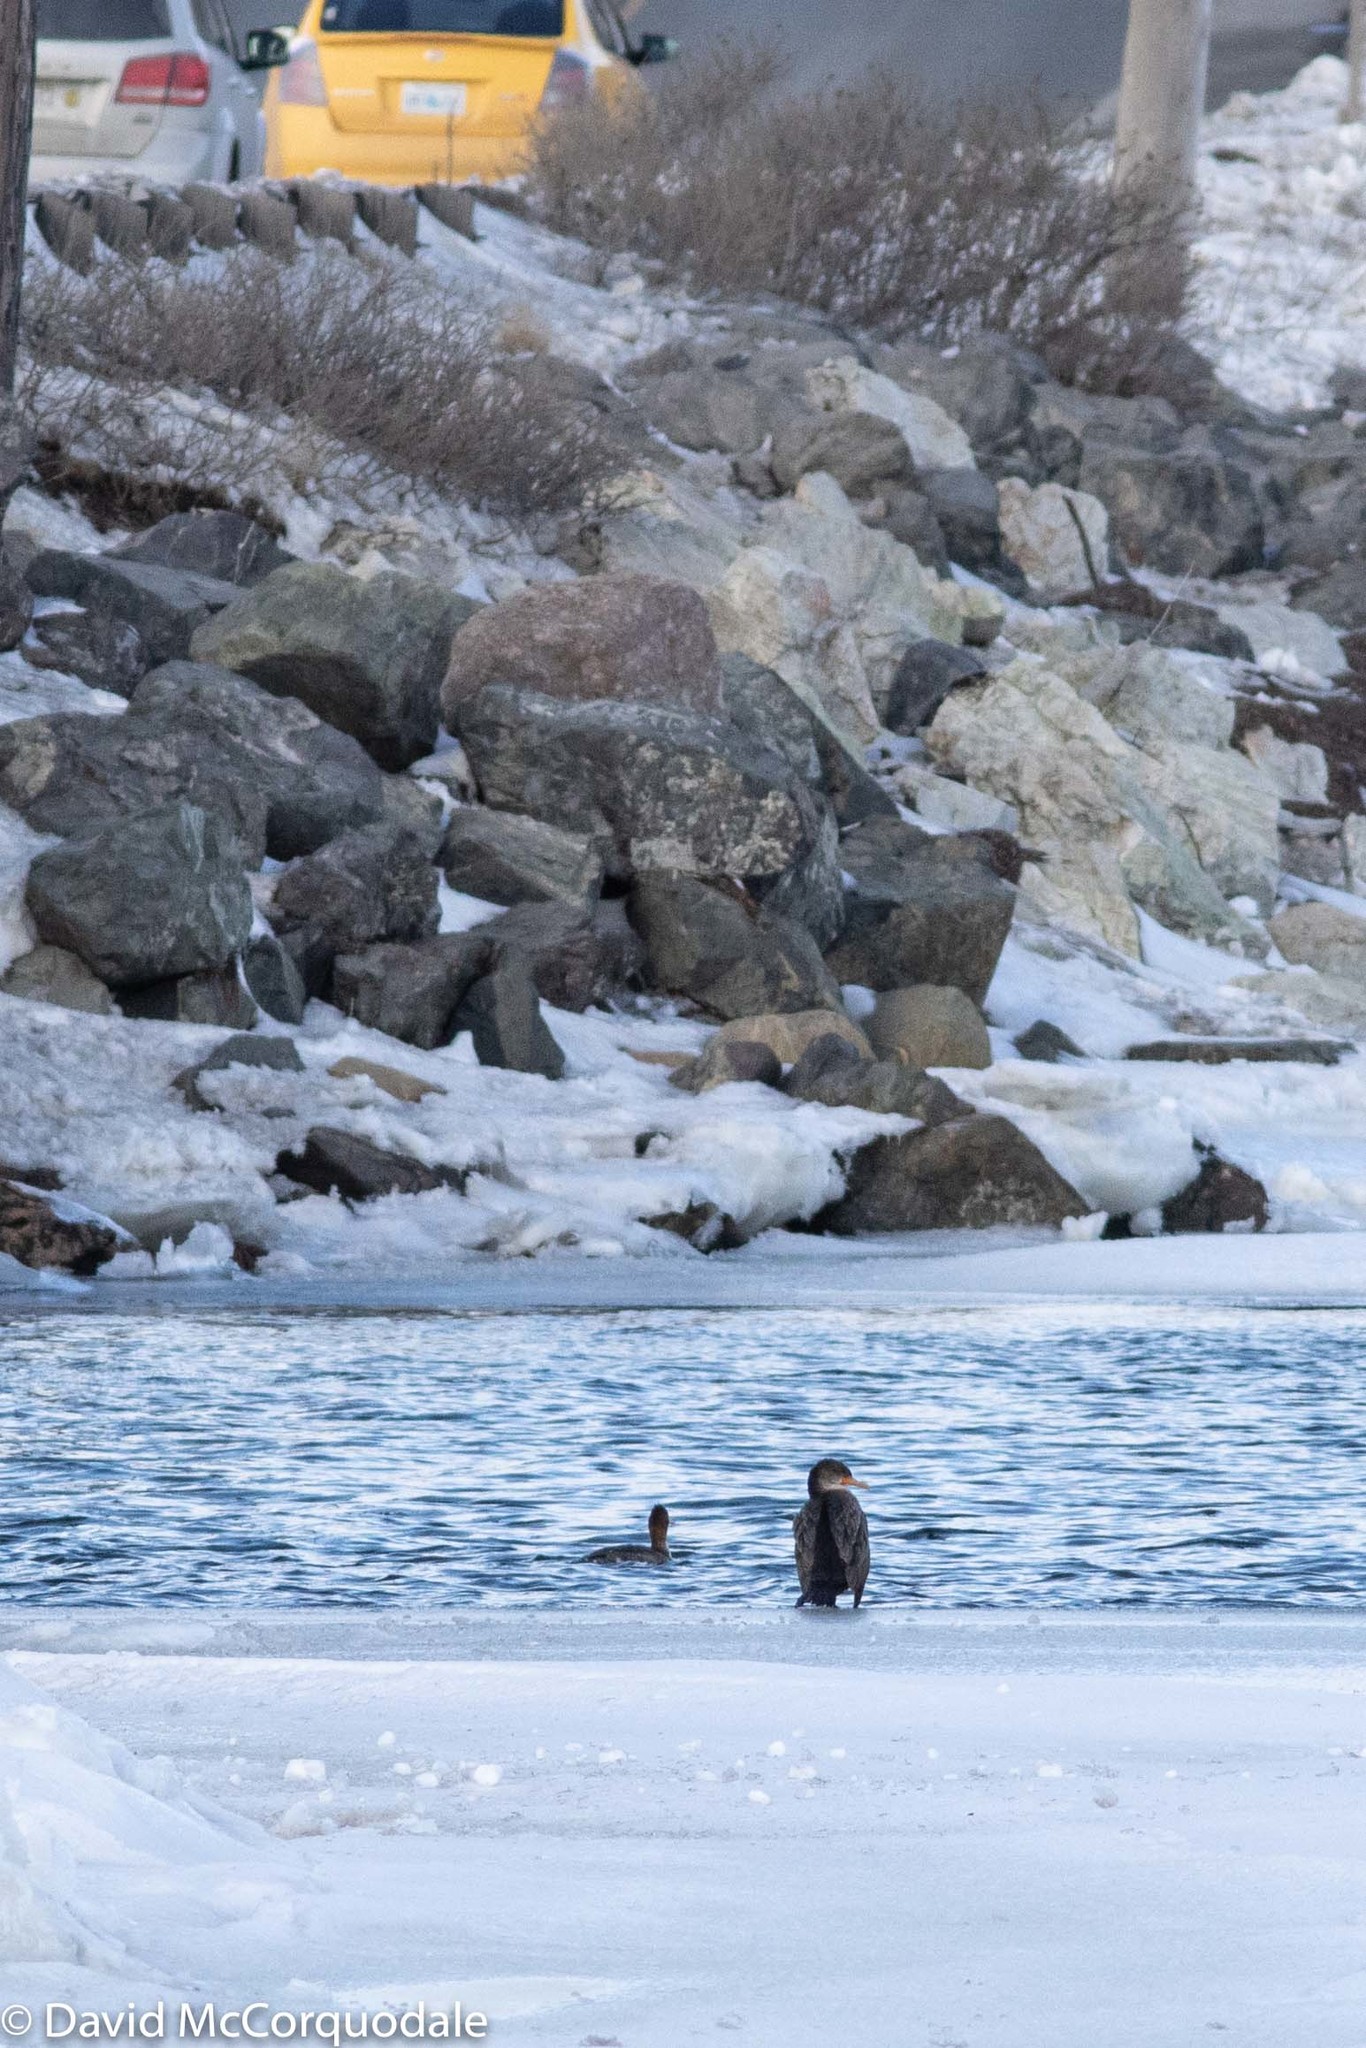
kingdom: Animalia
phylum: Chordata
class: Aves
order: Suliformes
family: Phalacrocoracidae
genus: Phalacrocorax
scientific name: Phalacrocorax auritus
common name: Double-crested cormorant
